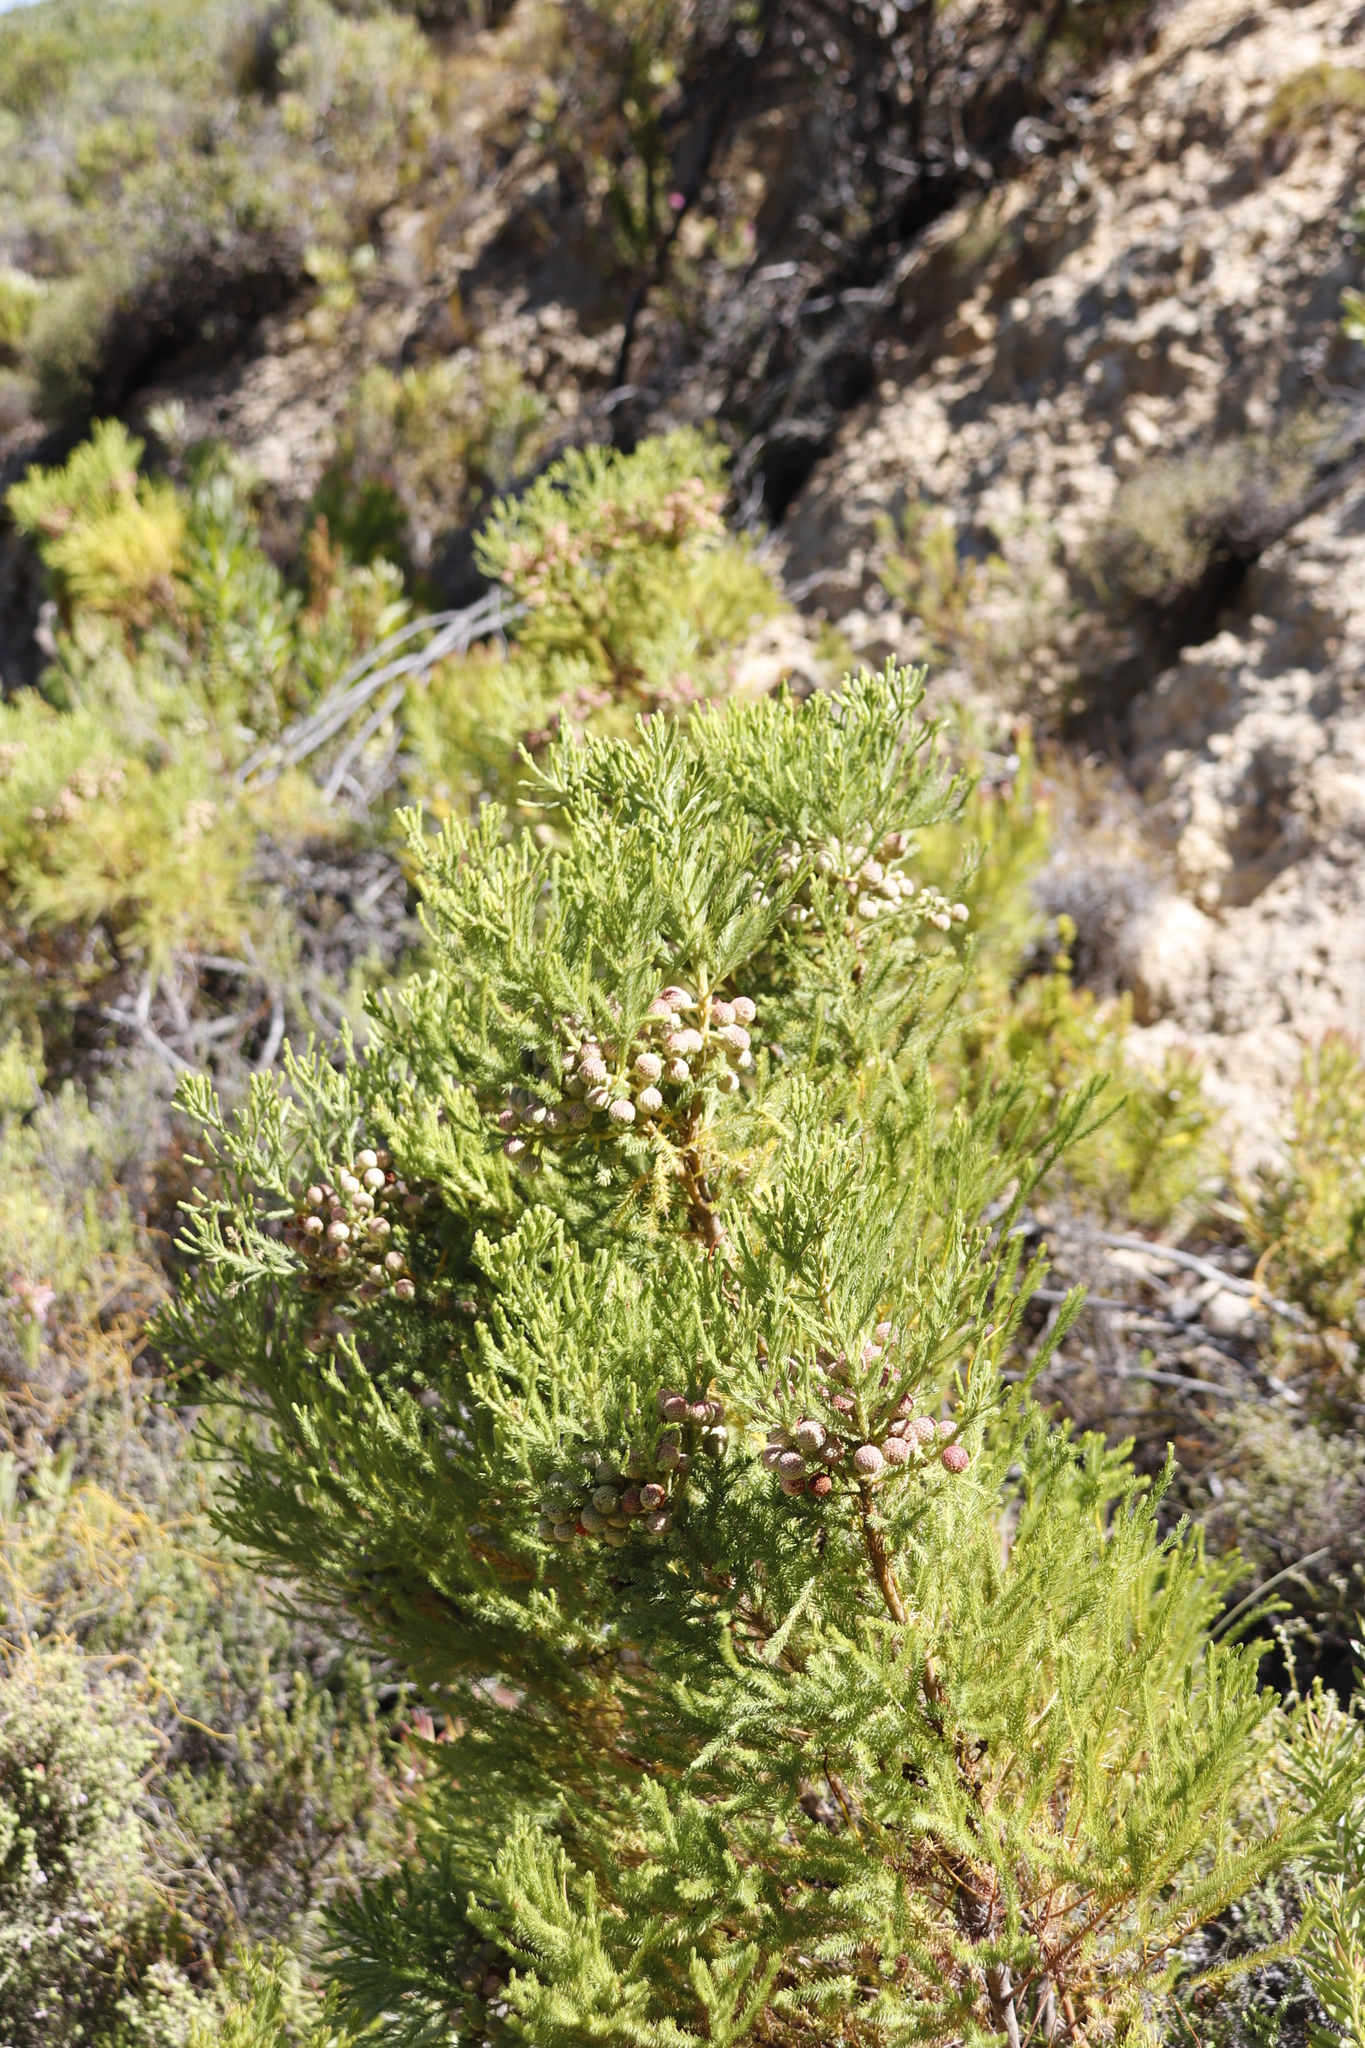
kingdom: Plantae
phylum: Tracheophyta
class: Magnoliopsida
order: Bruniales
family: Bruniaceae
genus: Berzelia
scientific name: Berzelia lanuginosa
